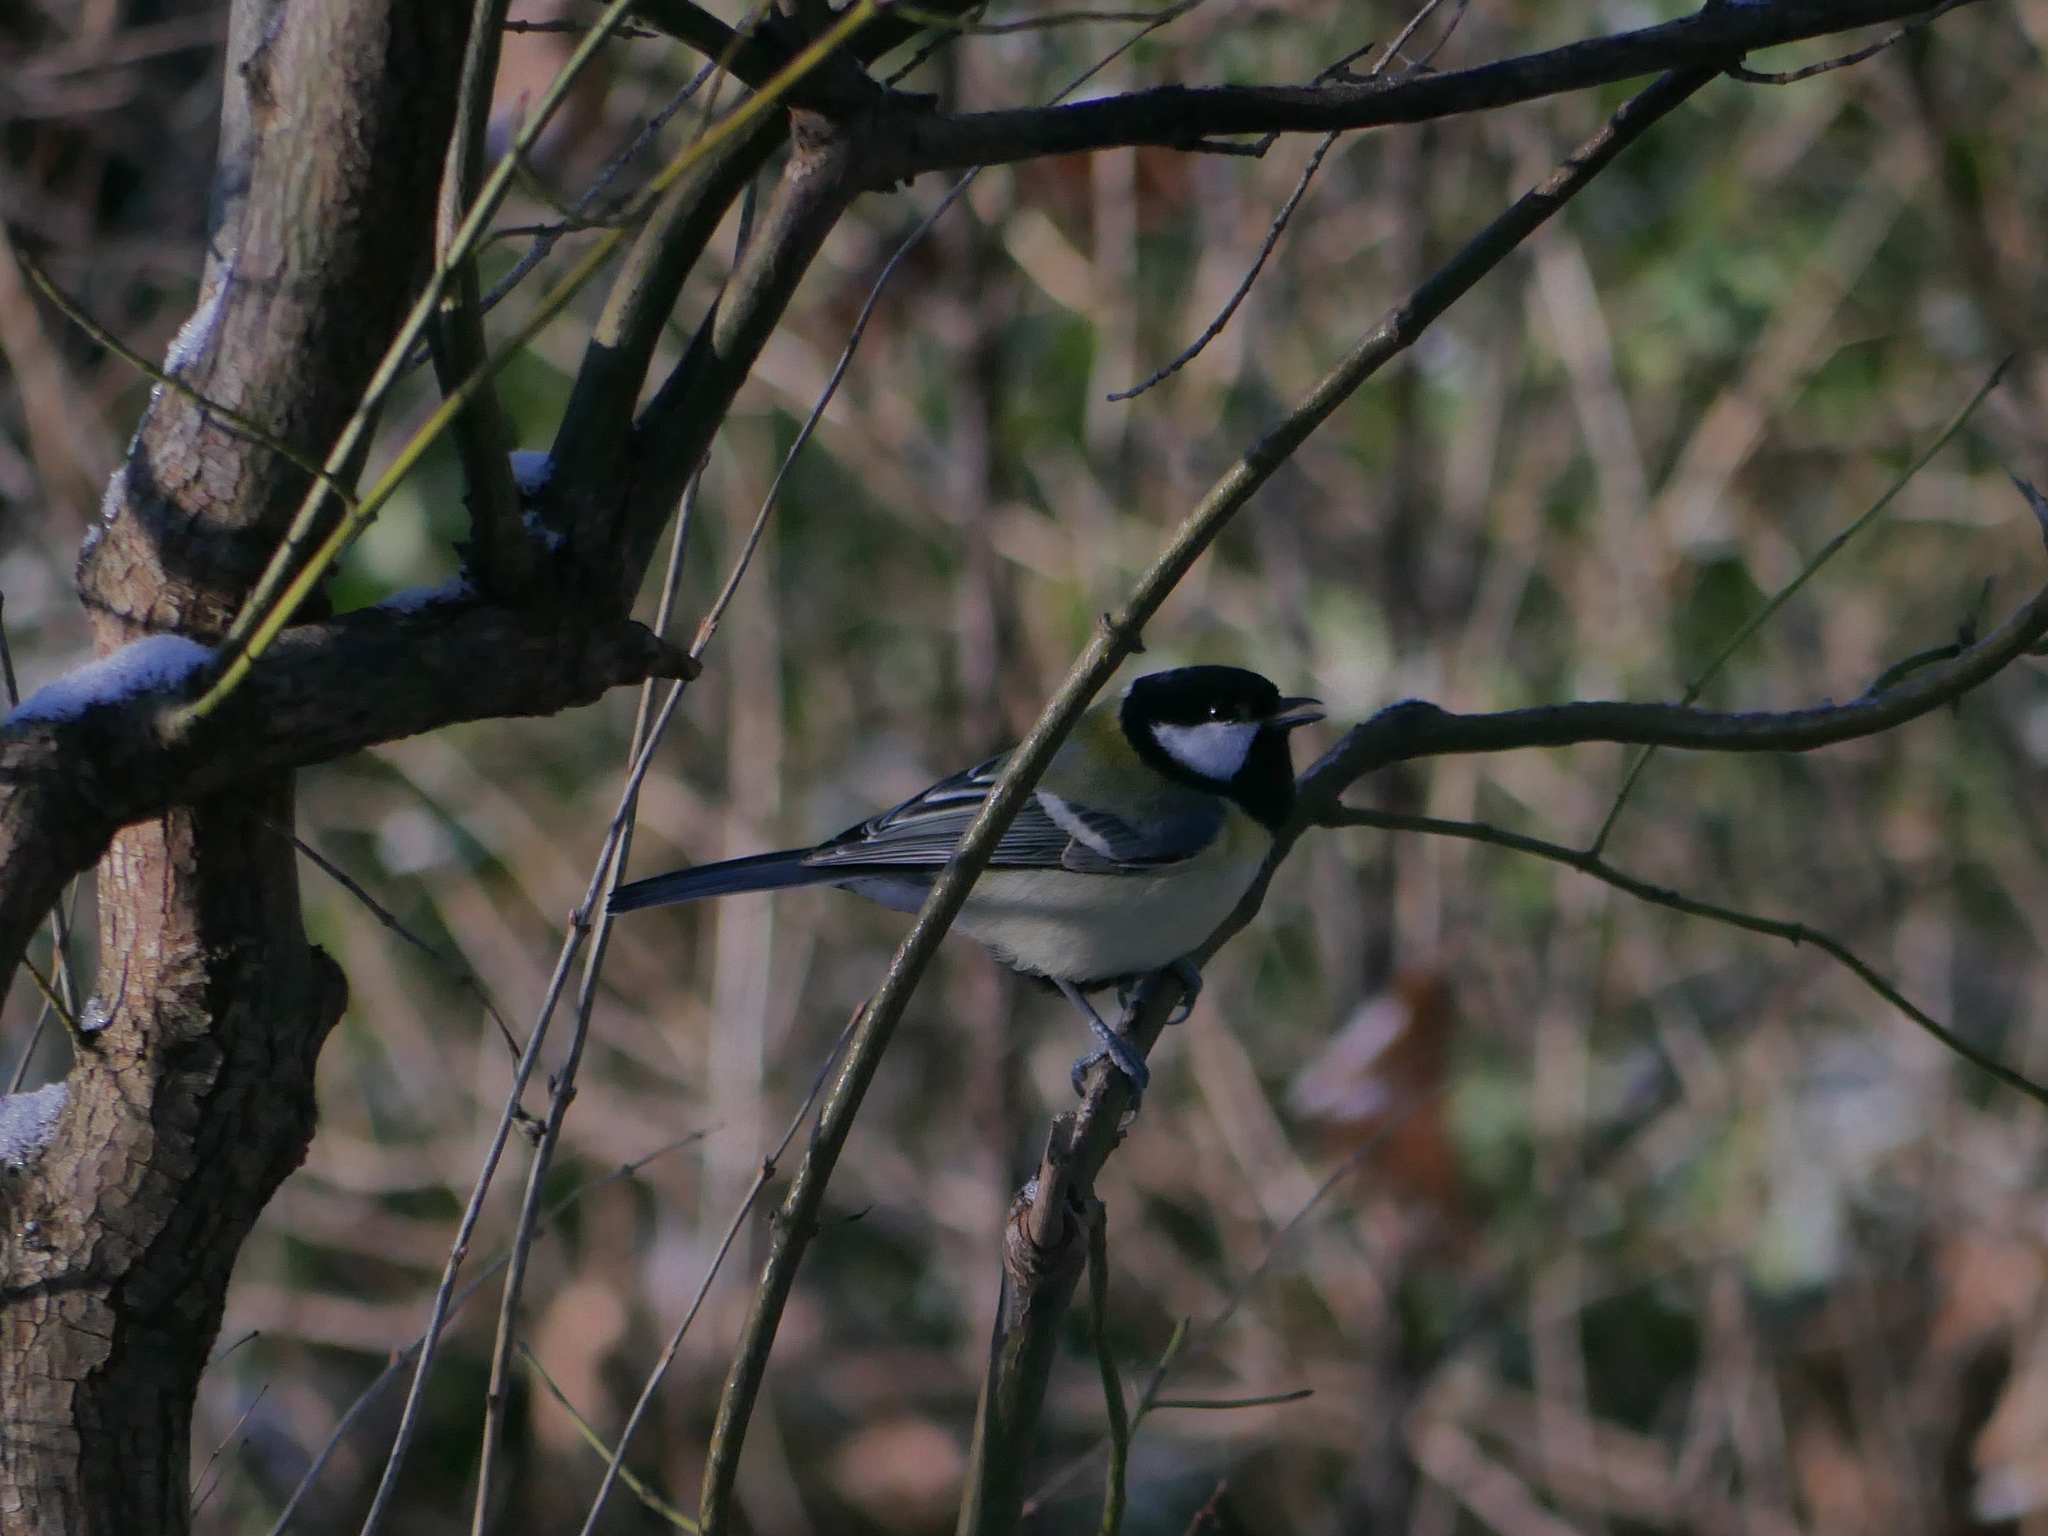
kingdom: Animalia
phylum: Chordata
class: Aves
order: Passeriformes
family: Paridae
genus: Parus
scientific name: Parus major
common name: Great tit
